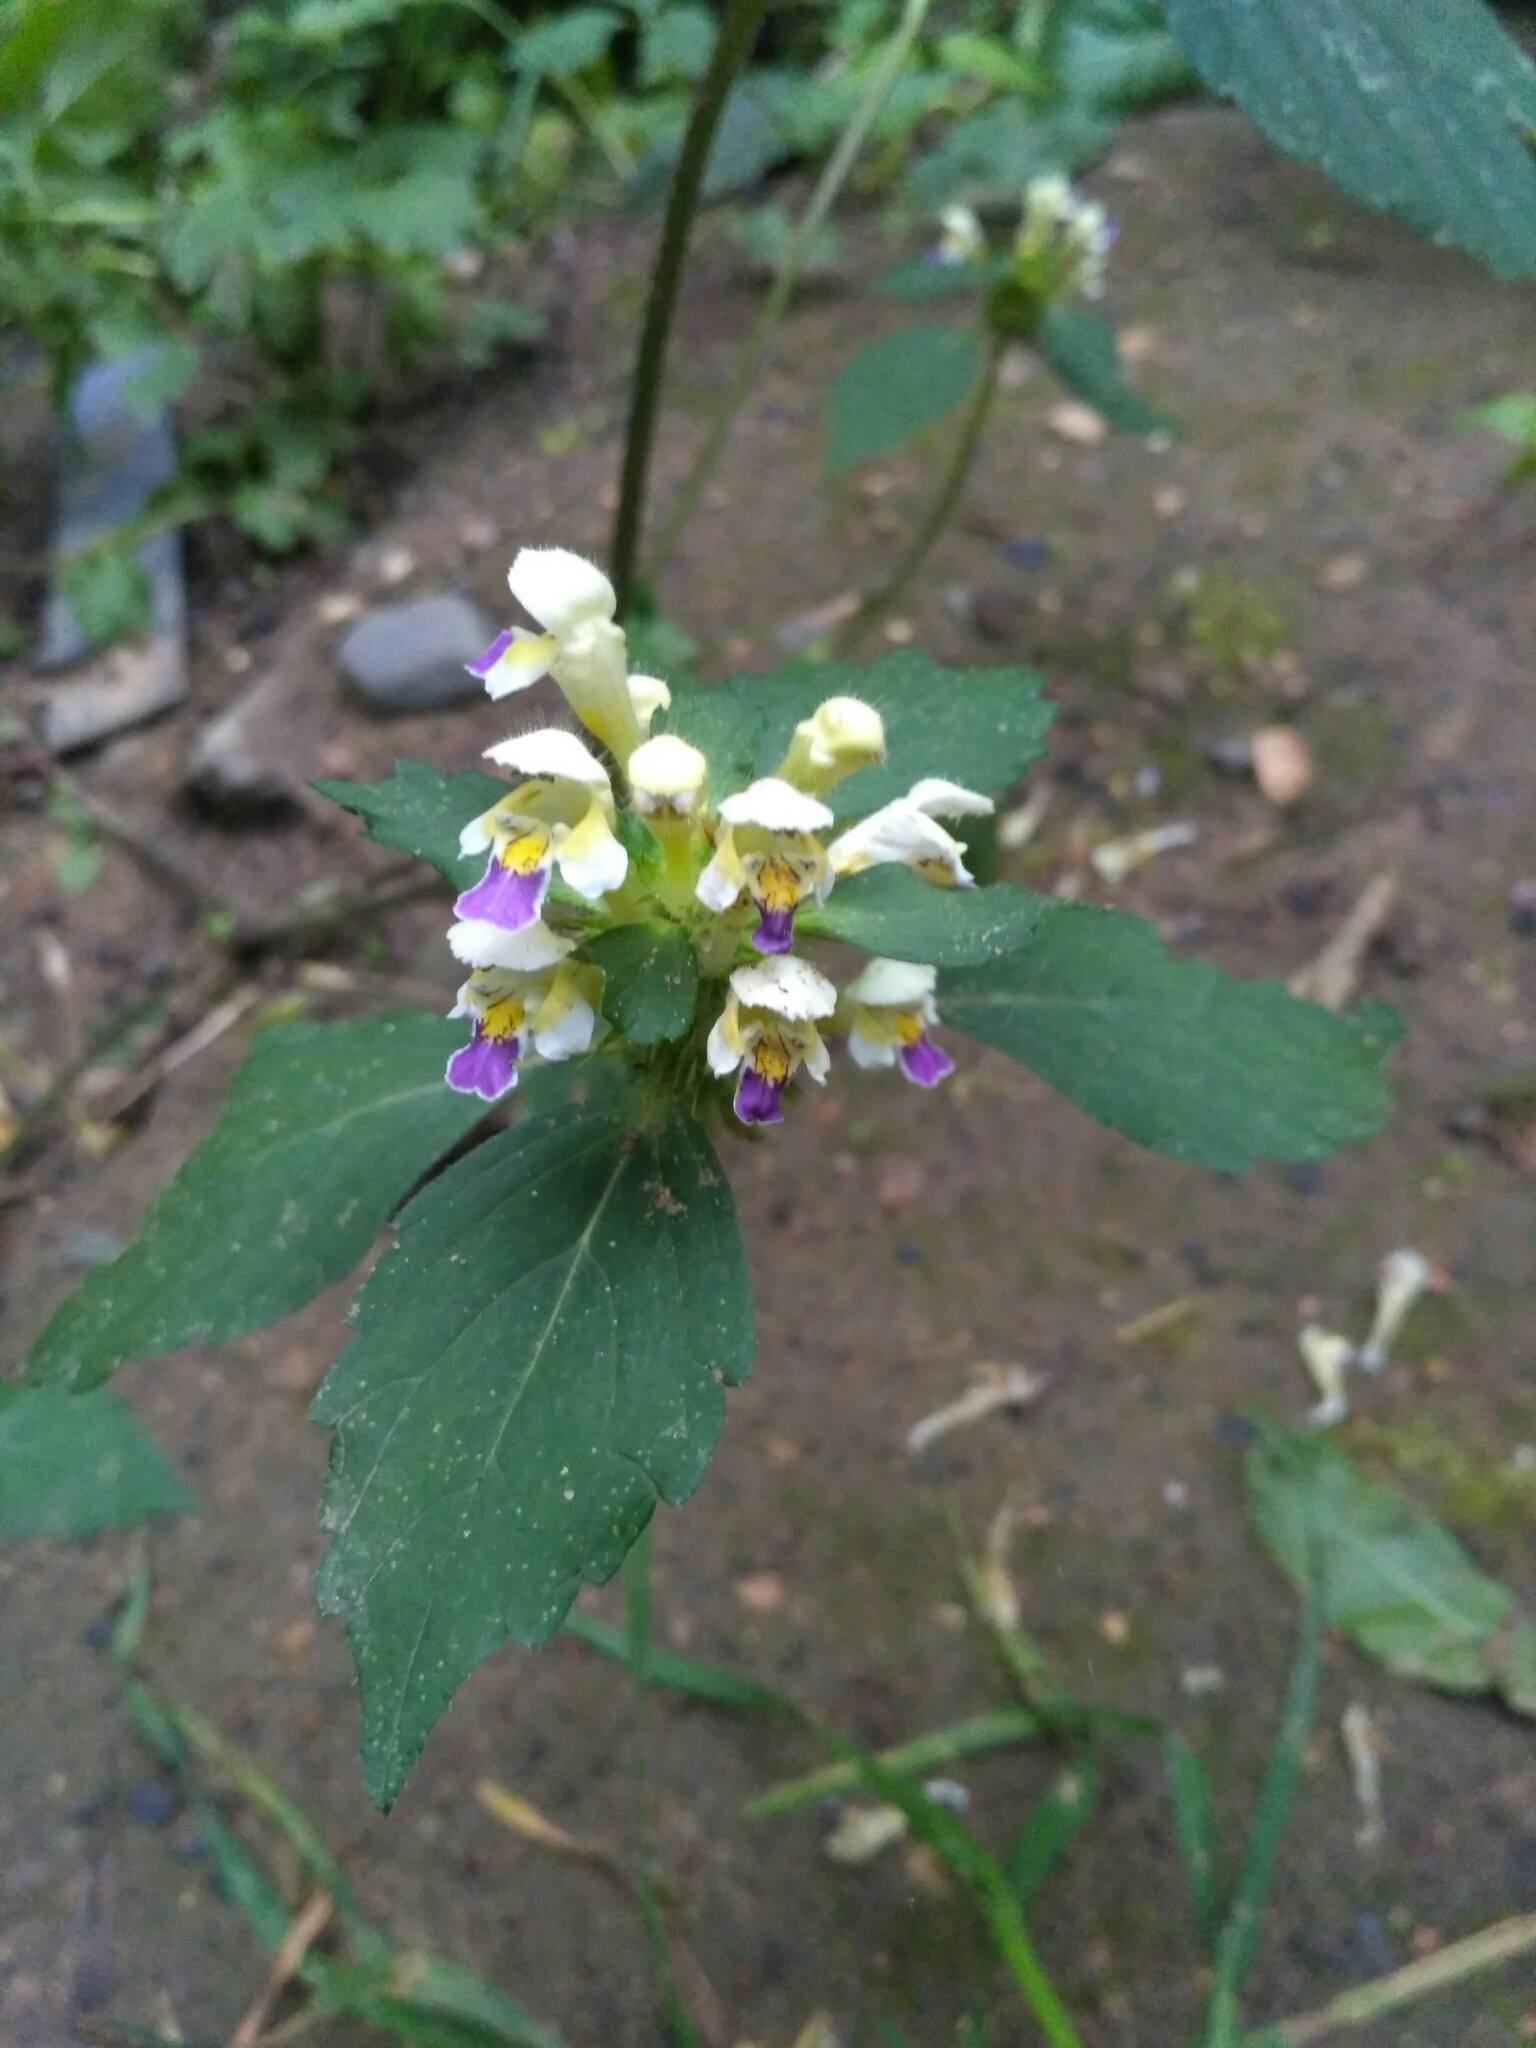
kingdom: Plantae
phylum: Tracheophyta
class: Magnoliopsida
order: Lamiales
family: Lamiaceae
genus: Galeopsis
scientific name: Galeopsis speciosa
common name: Large-flowered hemp-nettle
